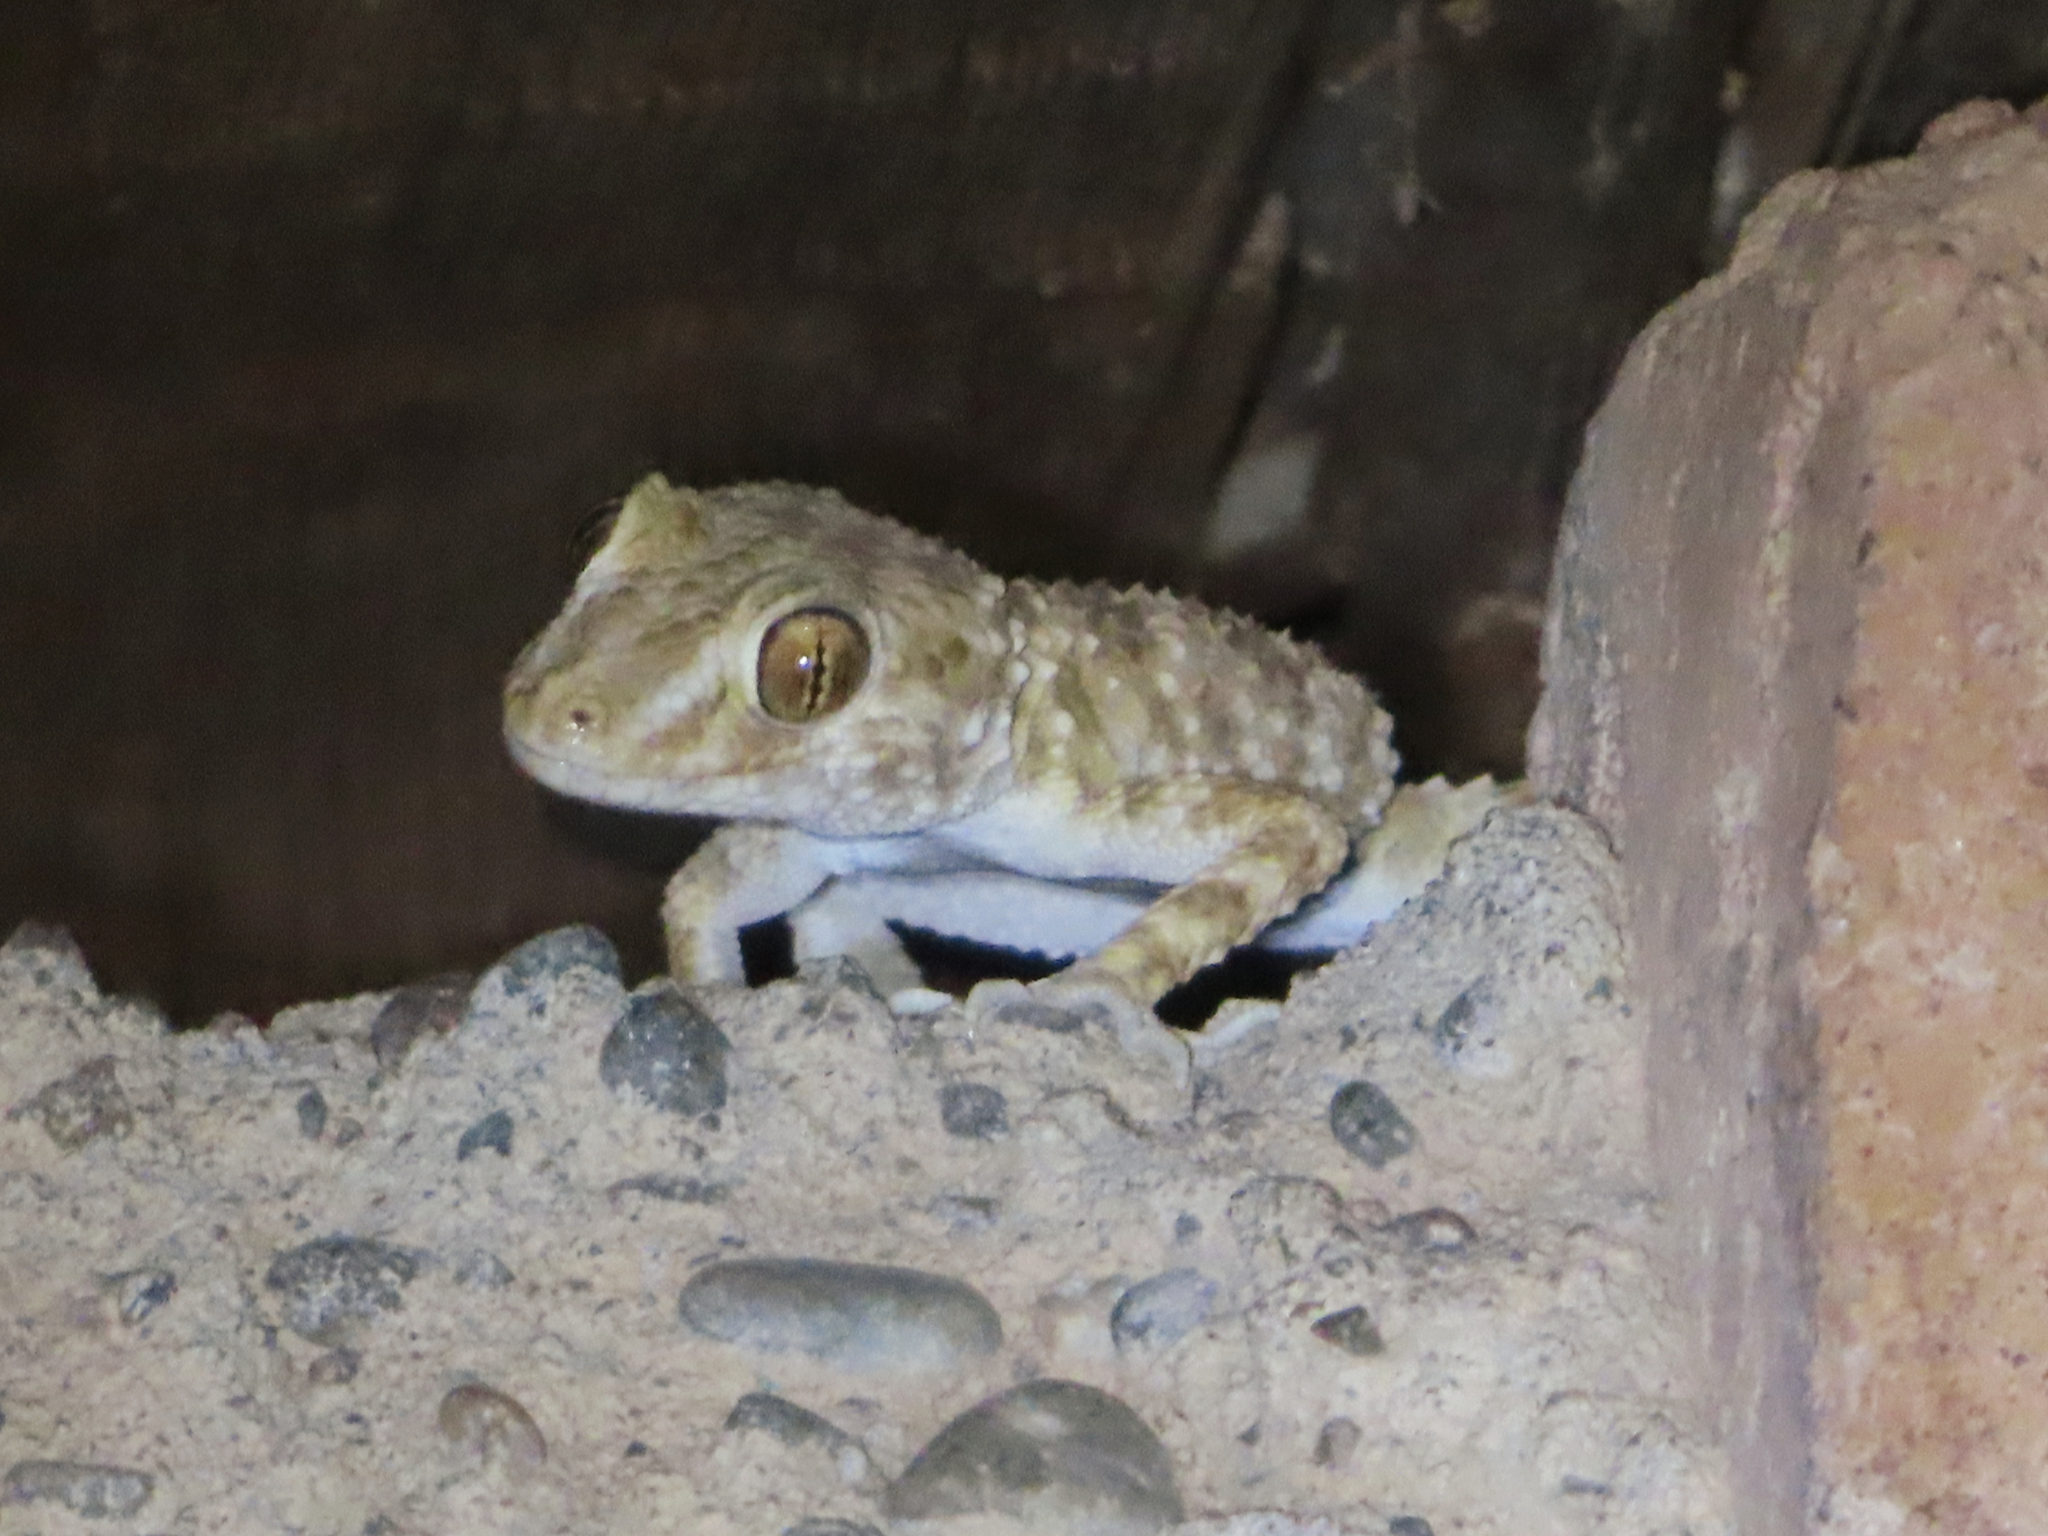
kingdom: Animalia
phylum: Chordata
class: Squamata
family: Gekkonidae
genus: Tenuidactylus
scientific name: Tenuidactylus caspius
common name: Caspian bent-toed gecko
